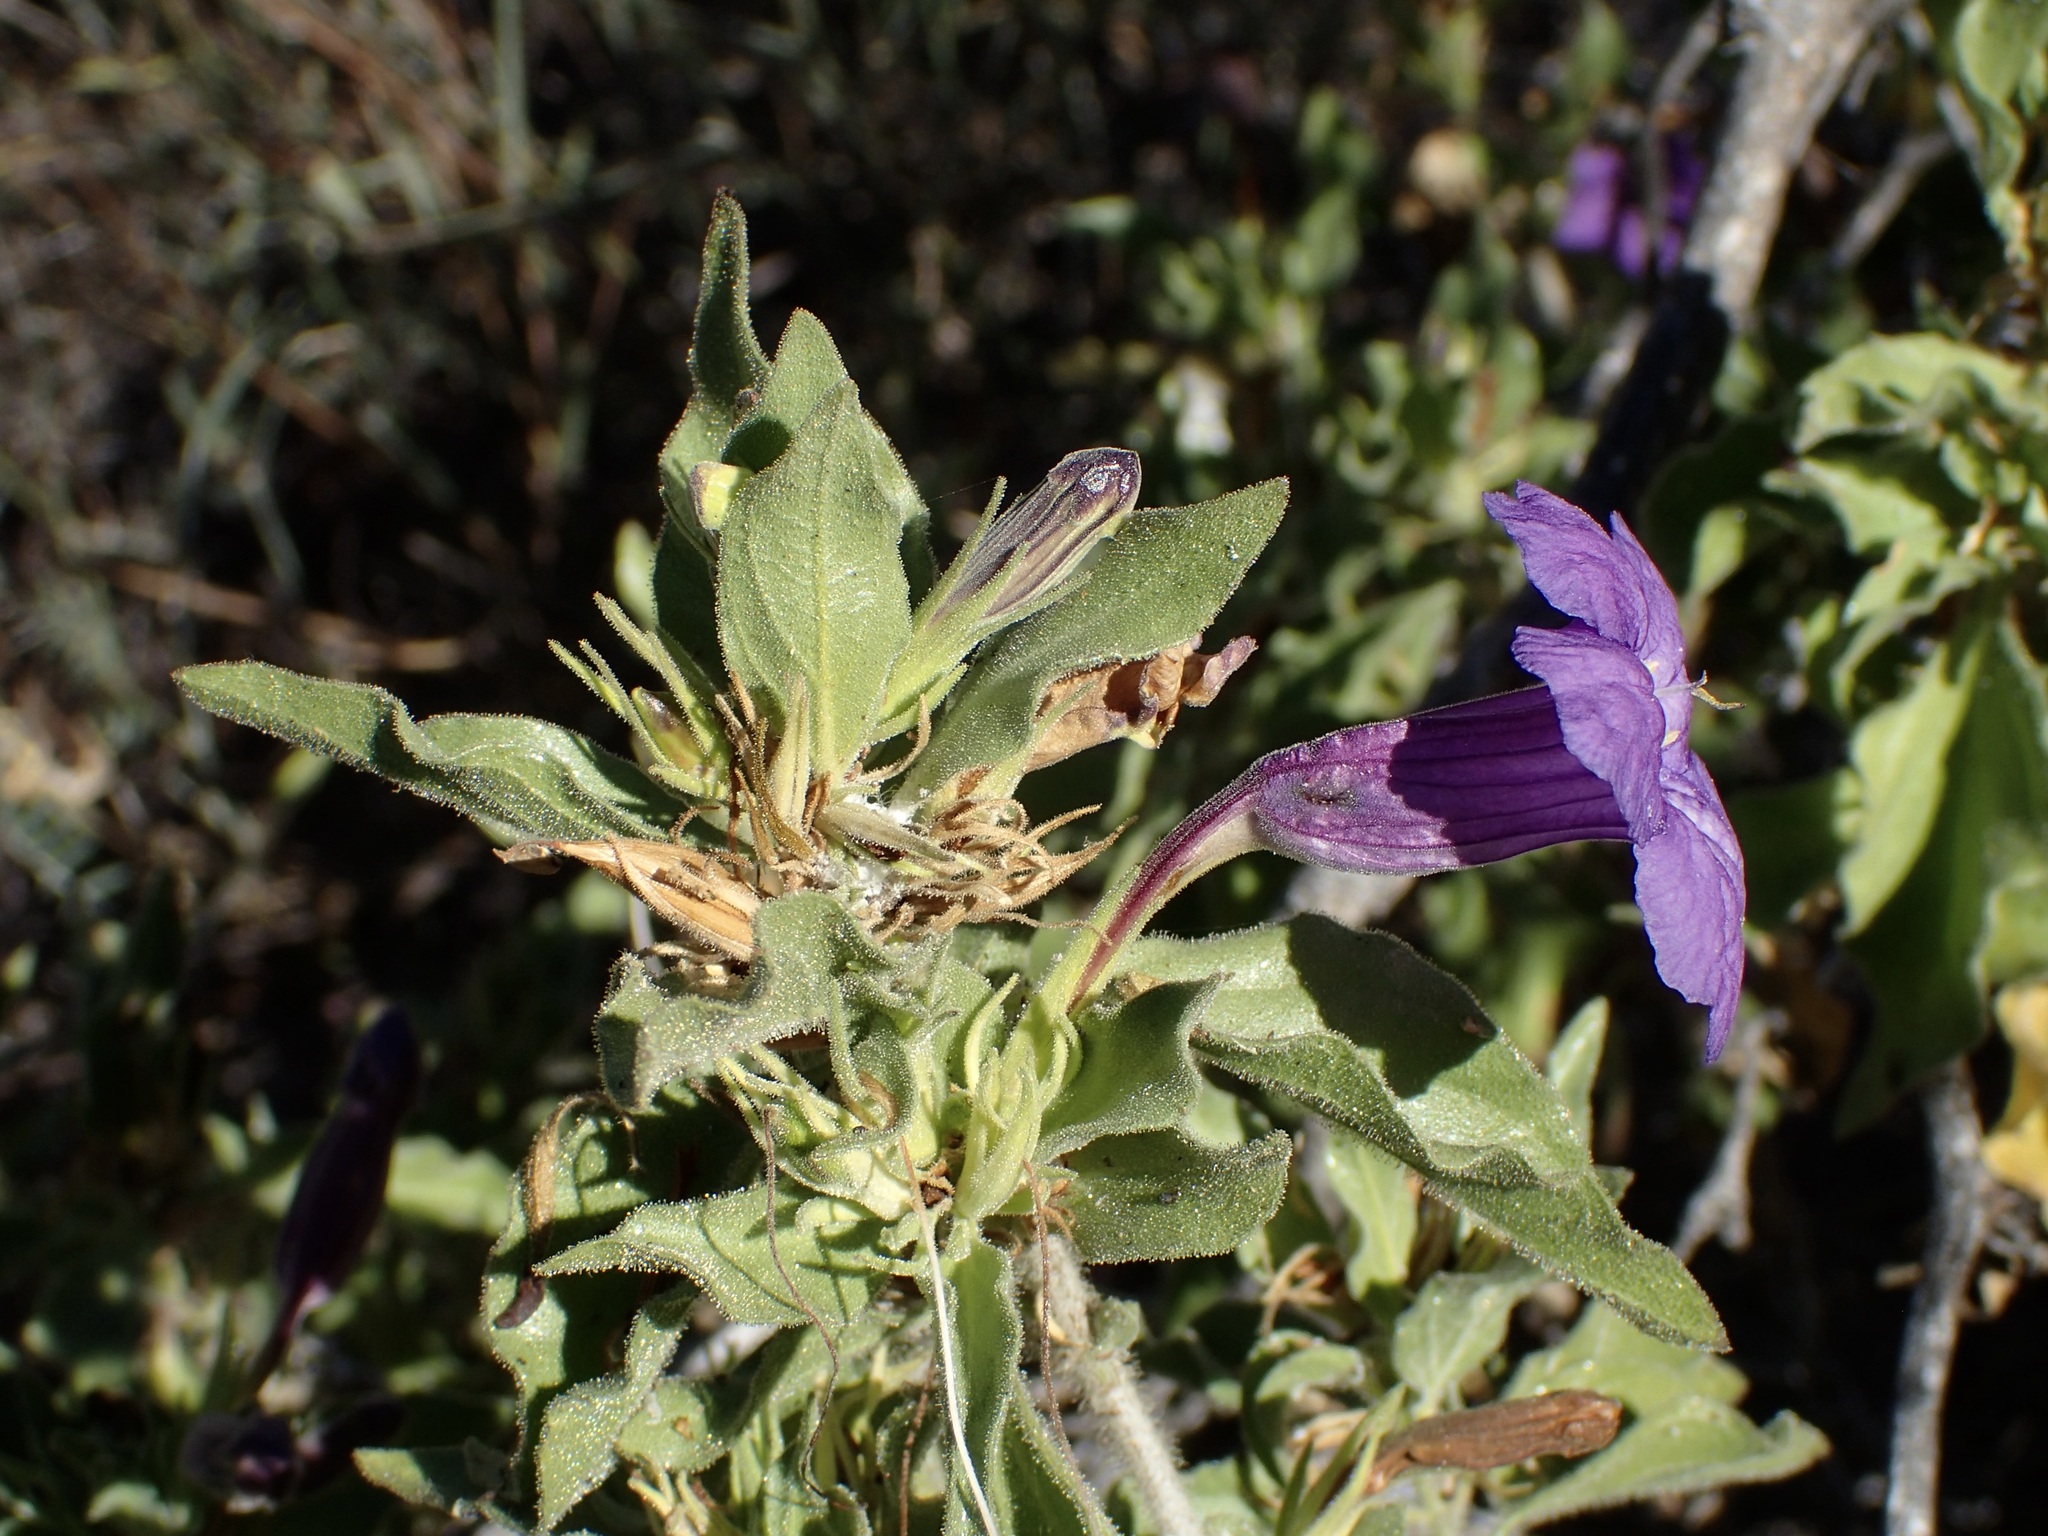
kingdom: Plantae
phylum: Tracheophyta
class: Magnoliopsida
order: Lamiales
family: Acanthaceae
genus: Ruellia
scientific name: Ruellia californica
